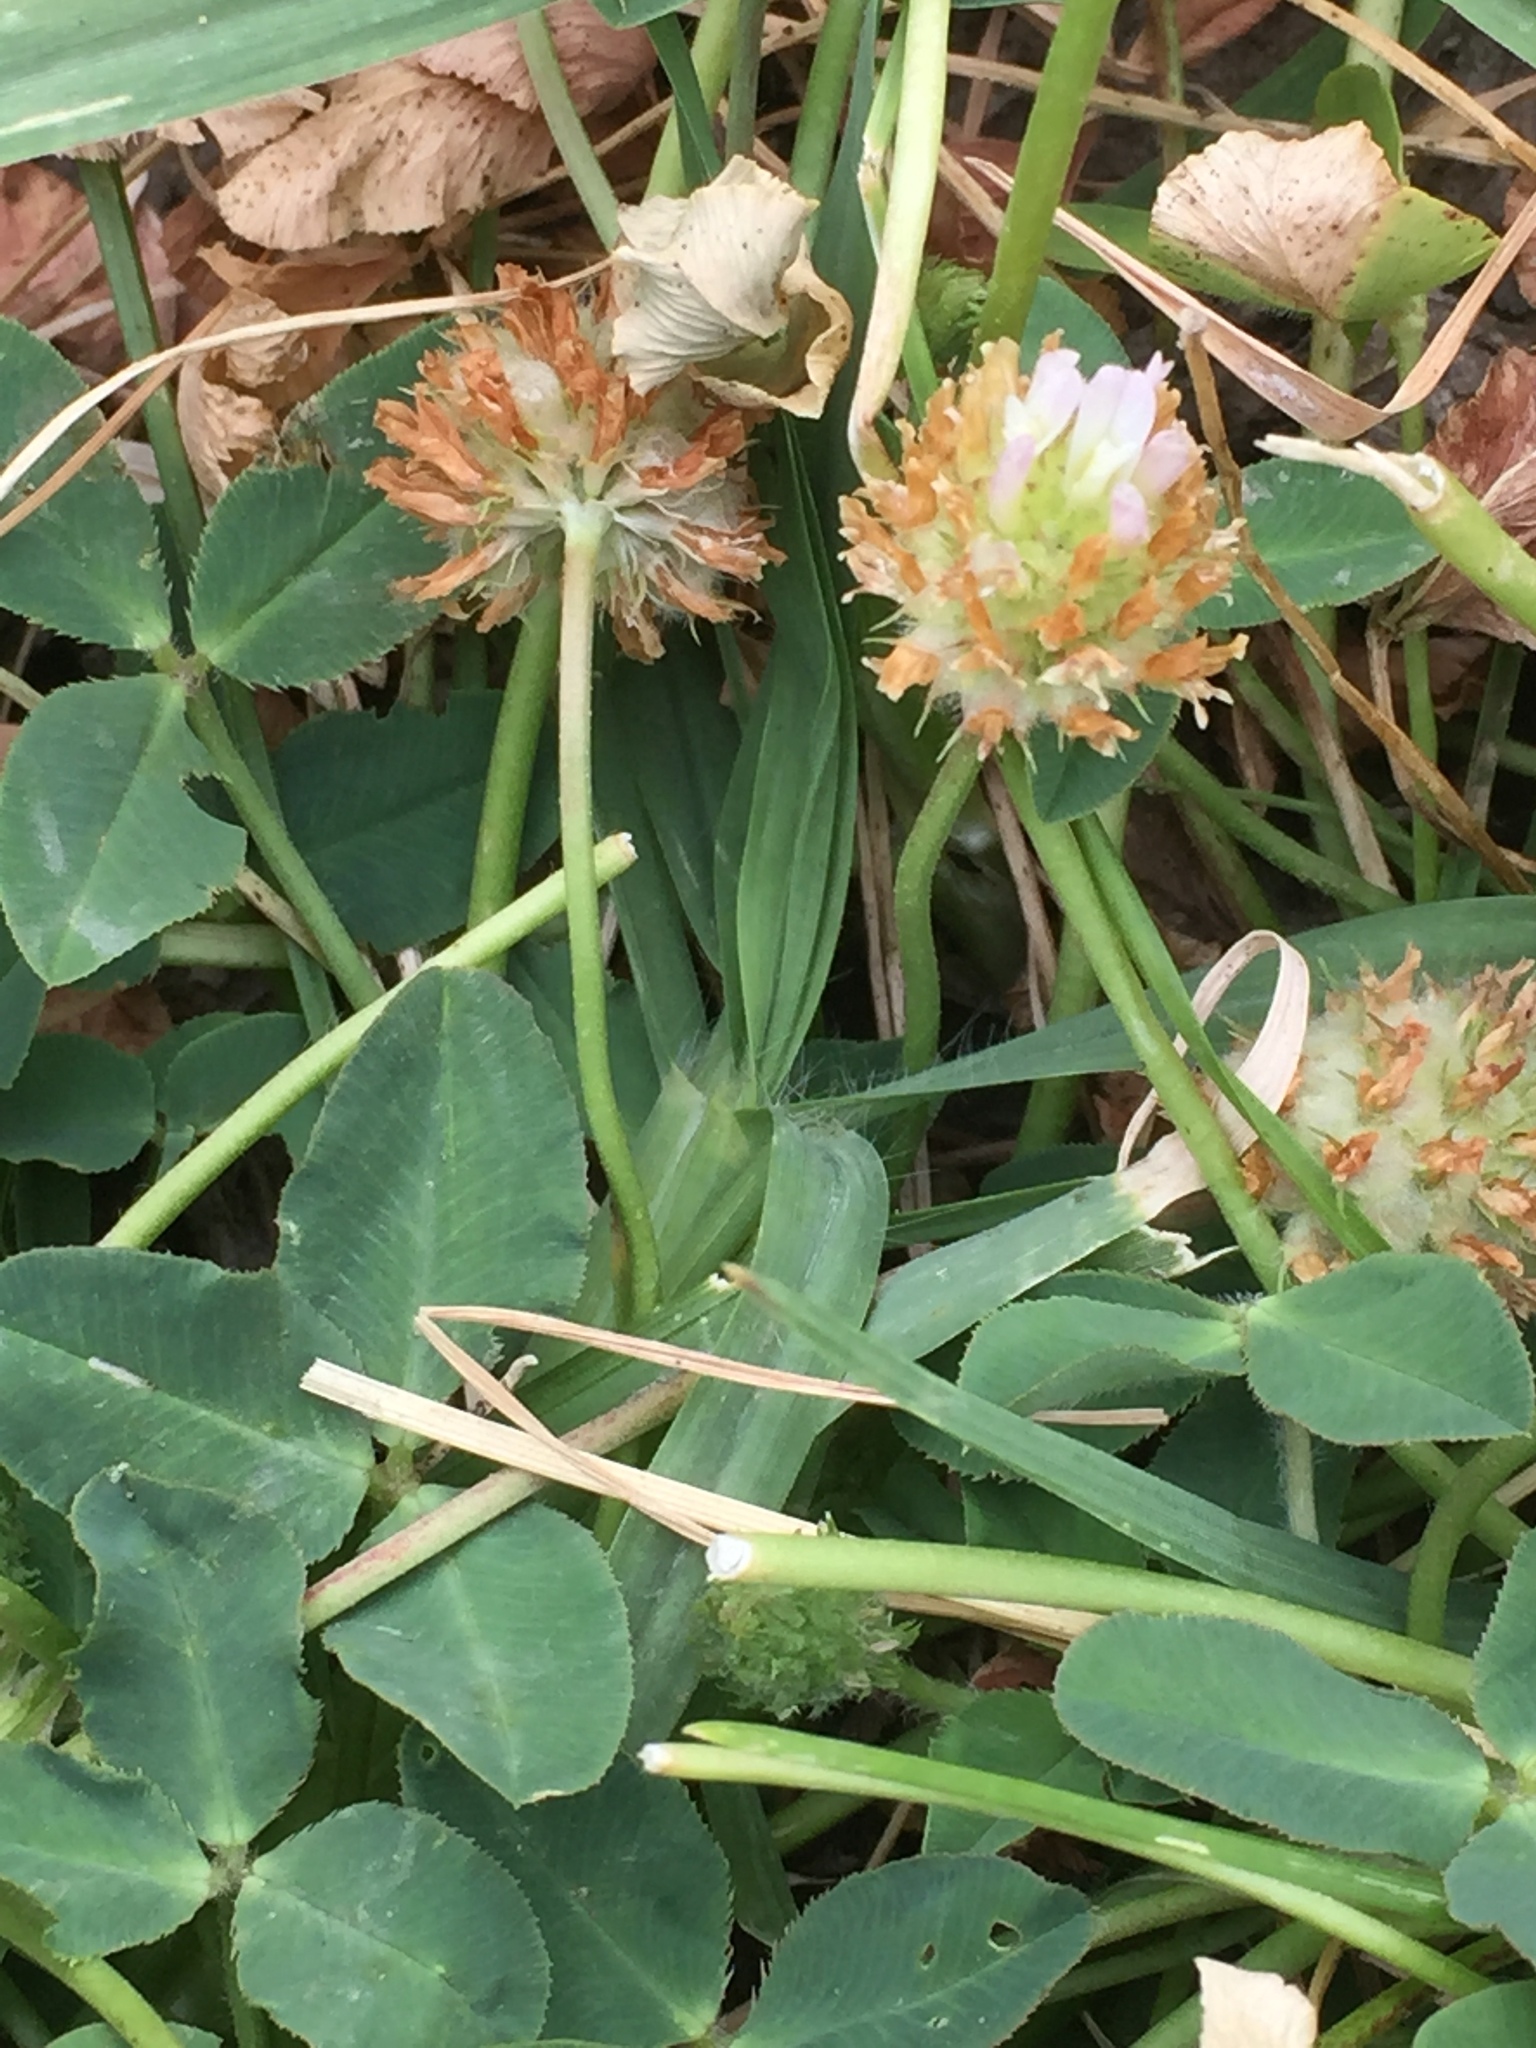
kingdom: Plantae
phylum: Tracheophyta
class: Magnoliopsida
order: Fabales
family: Fabaceae
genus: Trifolium
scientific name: Trifolium fragiferum
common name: Strawberry clover
